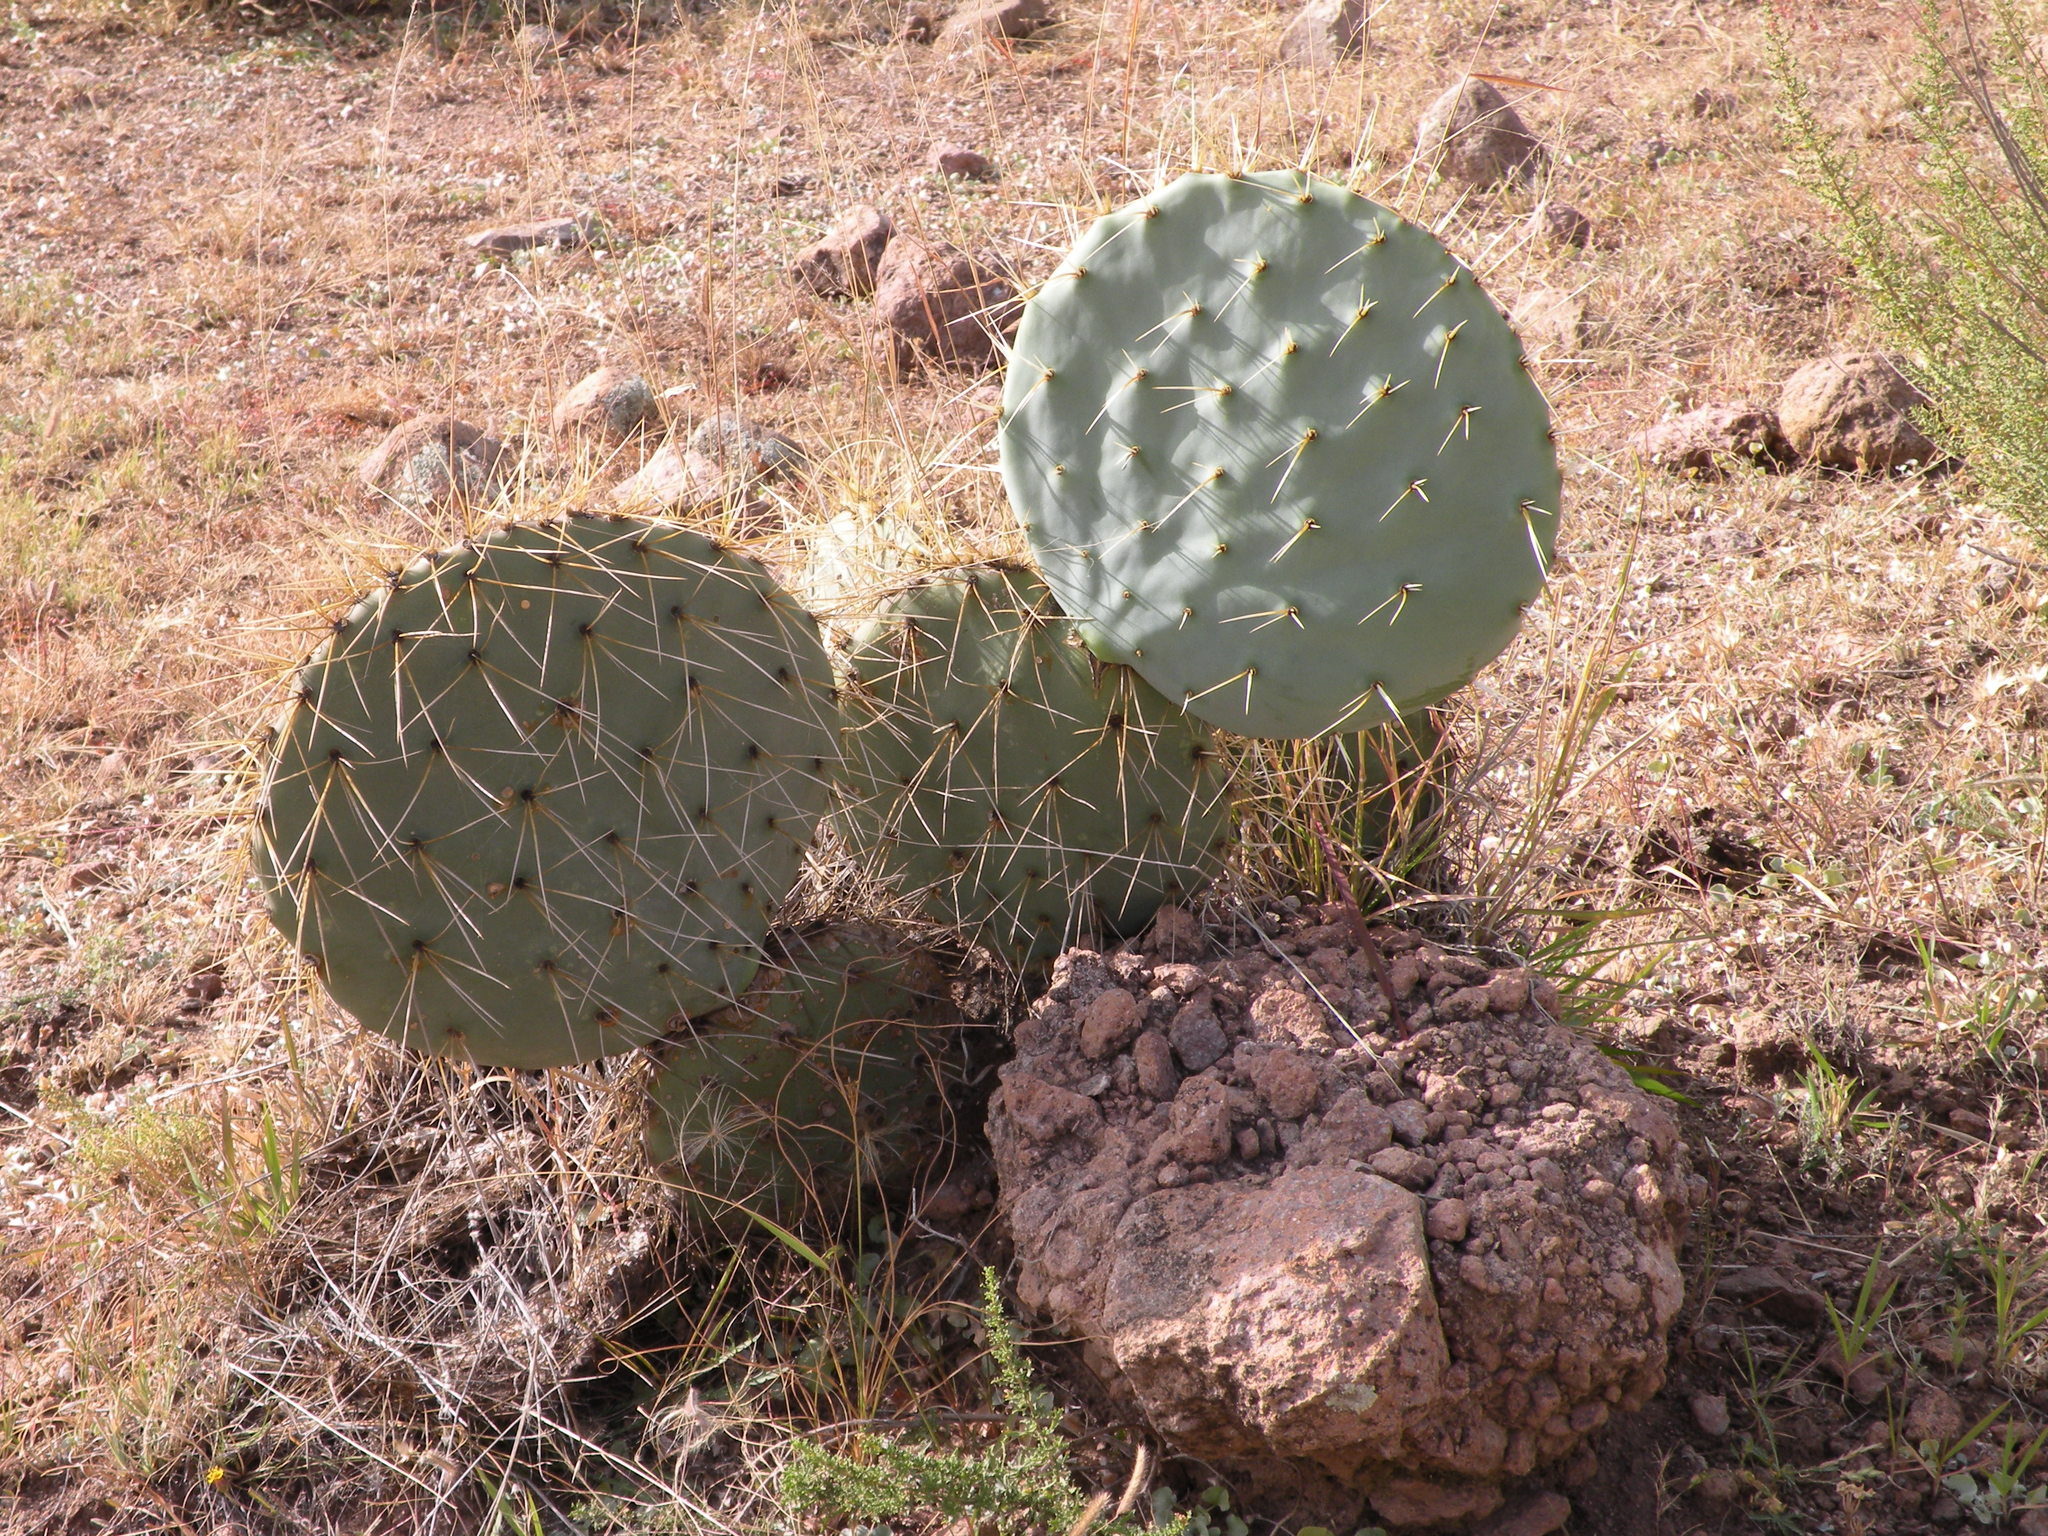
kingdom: Plantae
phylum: Tracheophyta
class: Magnoliopsida
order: Caryophyllales
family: Cactaceae
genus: Opuntia
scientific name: Opuntia robusta
